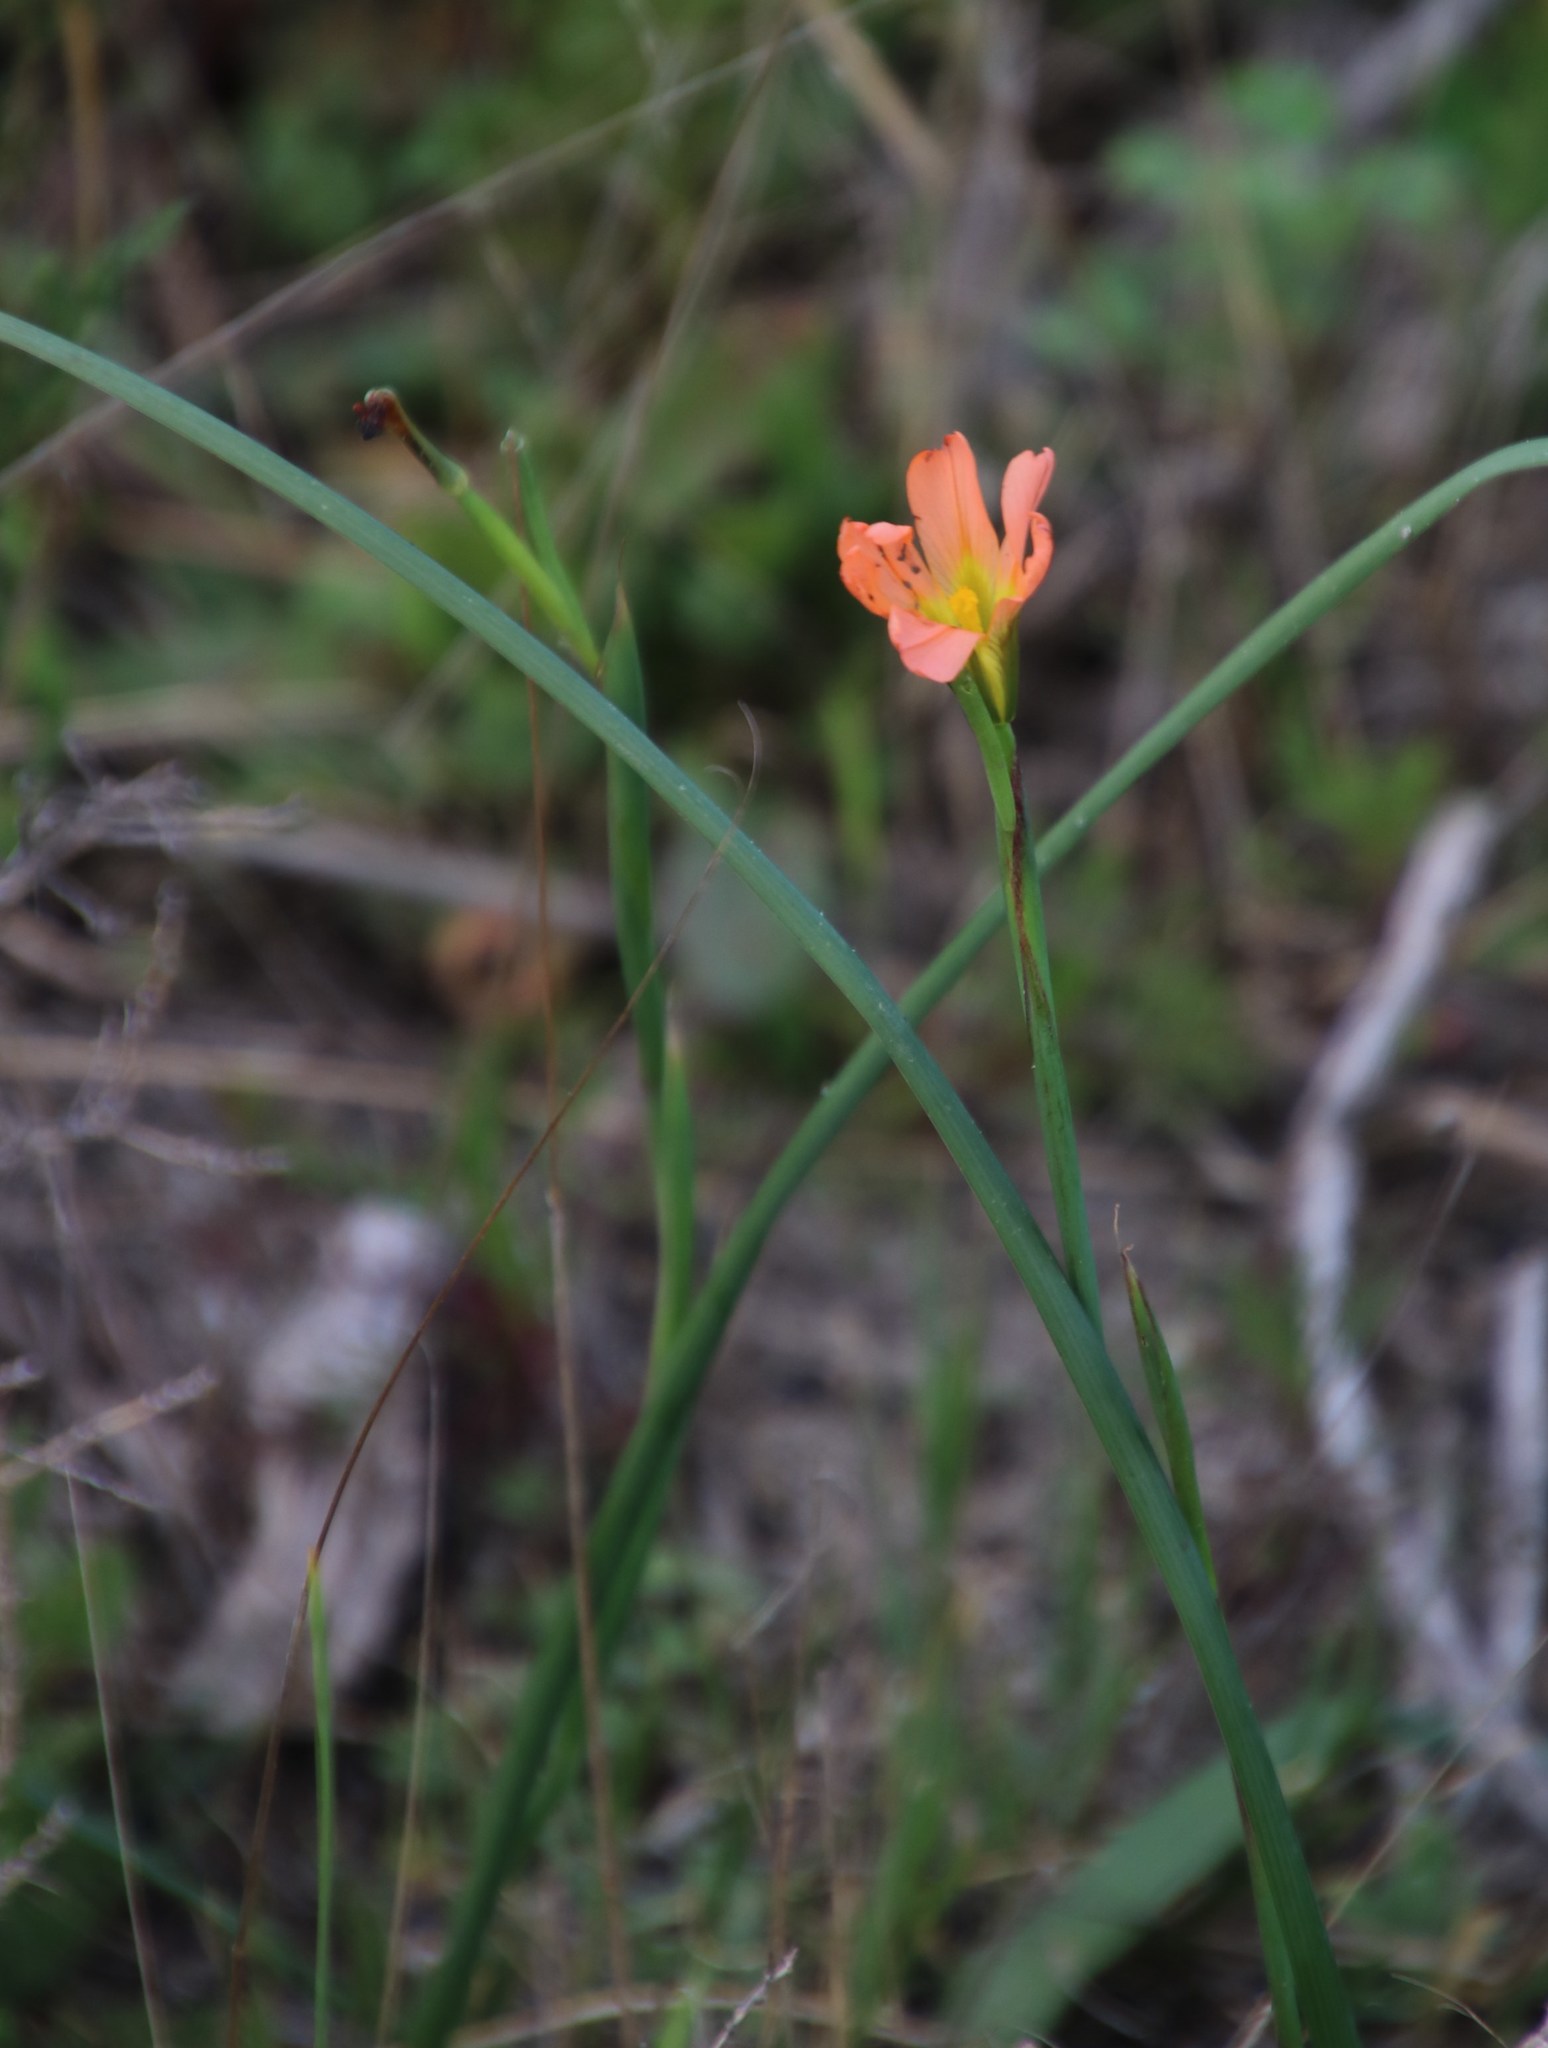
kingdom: Plantae
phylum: Tracheophyta
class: Liliopsida
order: Asparagales
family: Iridaceae
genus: Moraea
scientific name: Moraea flaccida
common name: One-leaf cape-tulip
